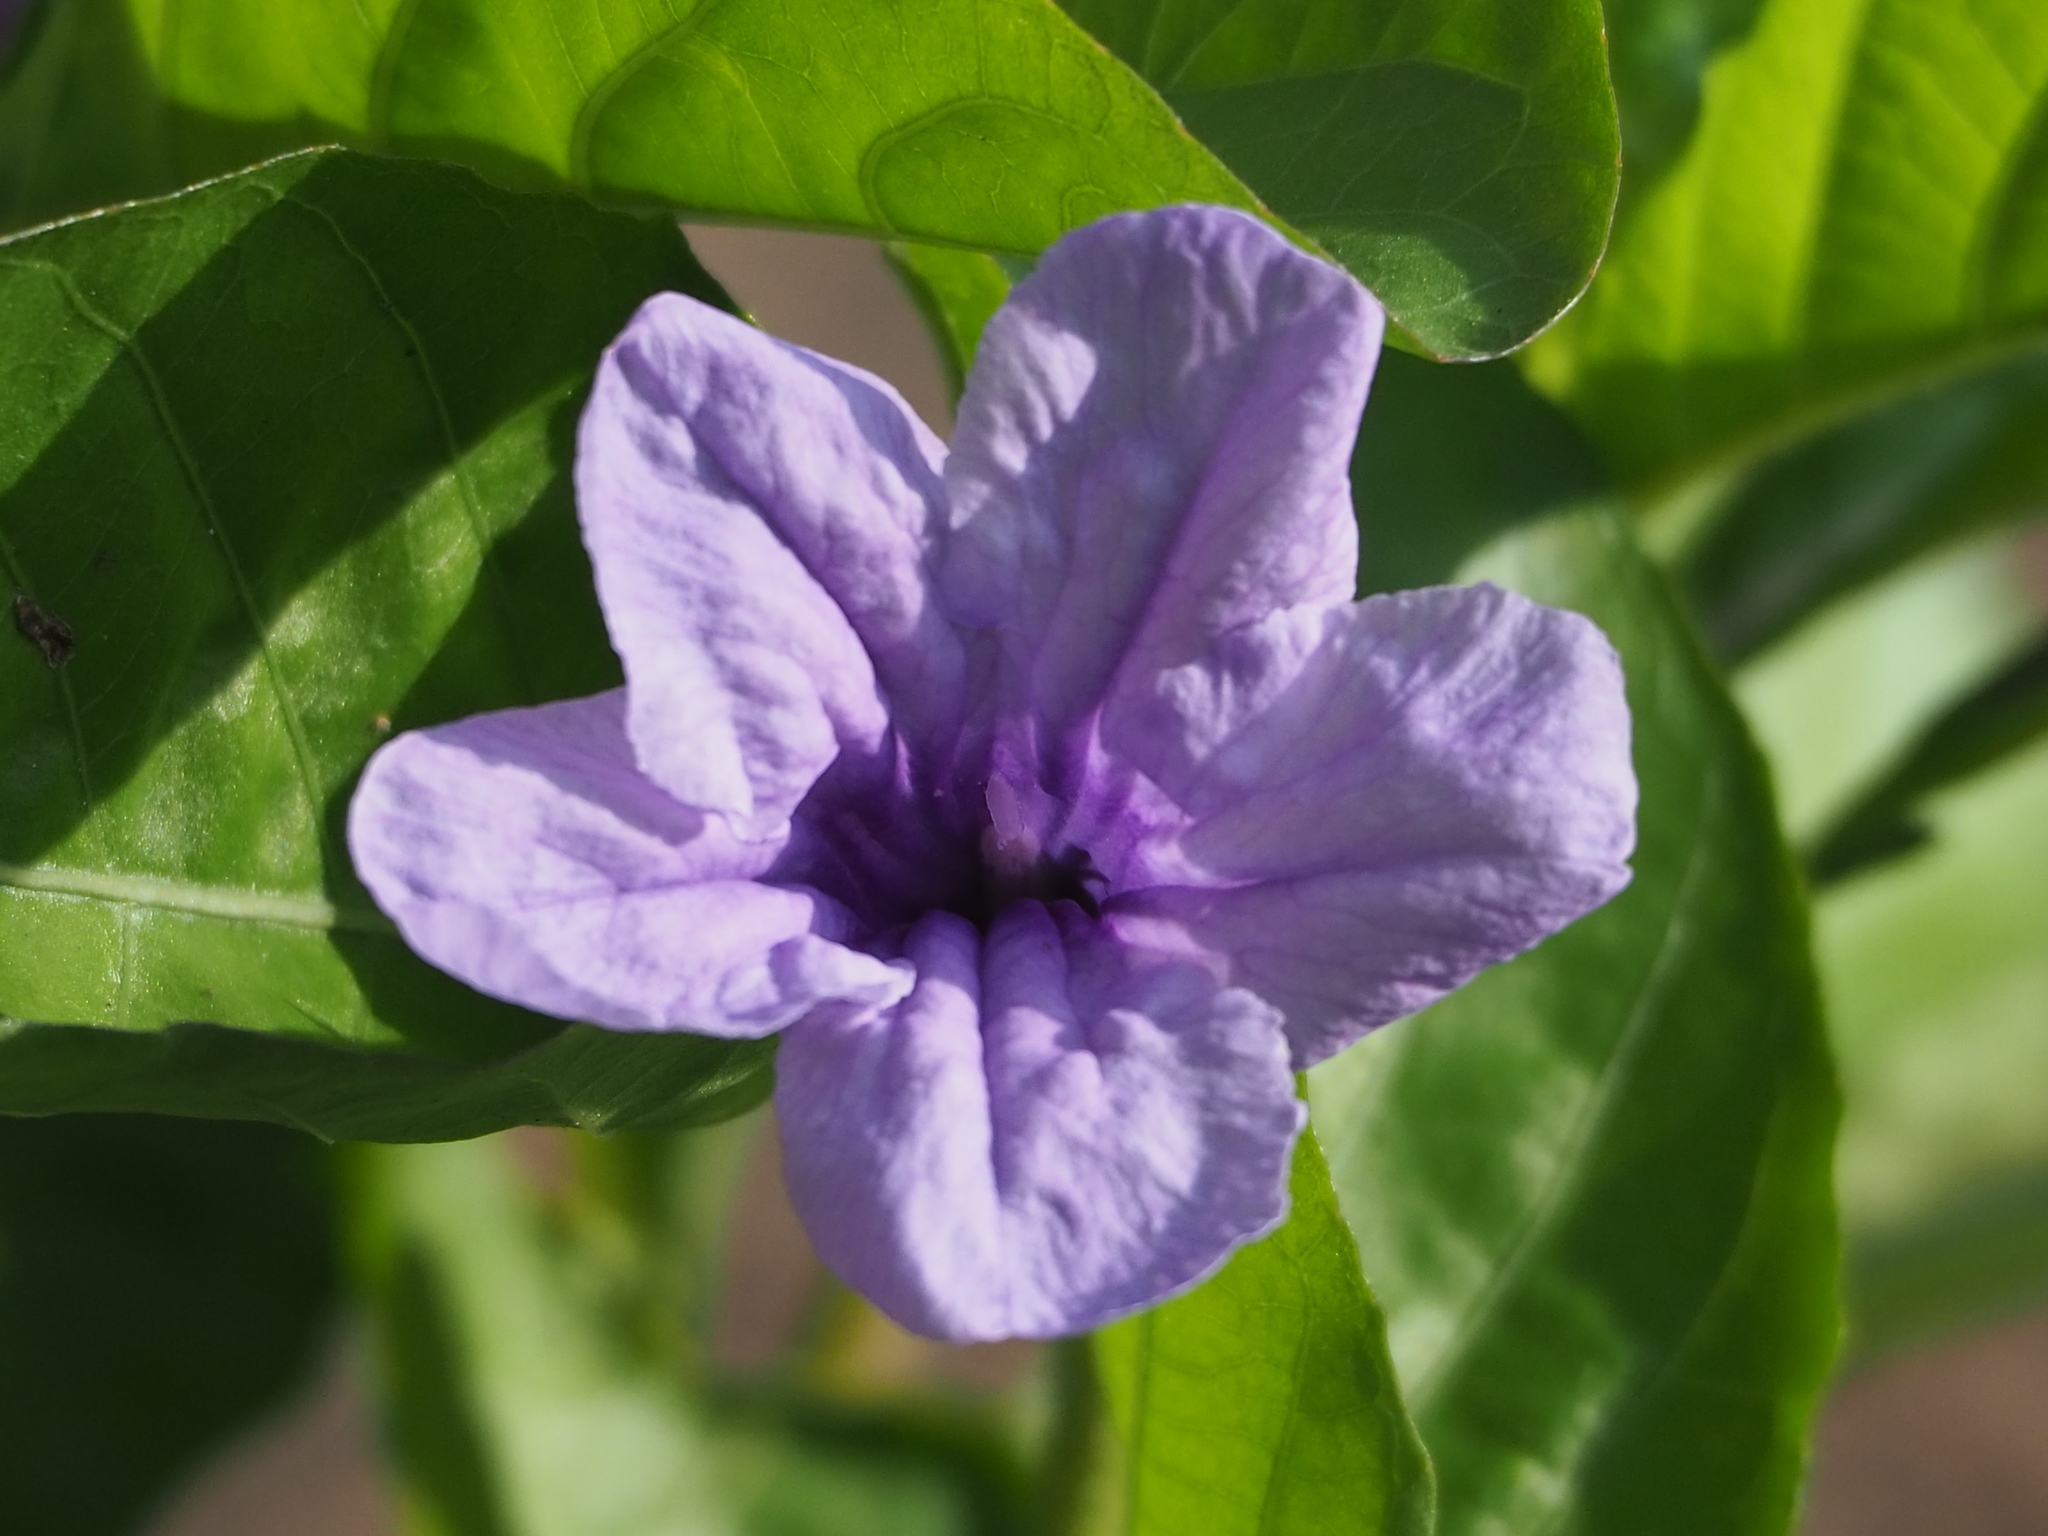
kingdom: Plantae
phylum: Tracheophyta
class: Magnoliopsida
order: Lamiales
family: Acanthaceae
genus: Ruellia
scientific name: Ruellia tuberosa
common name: Devil's bit
